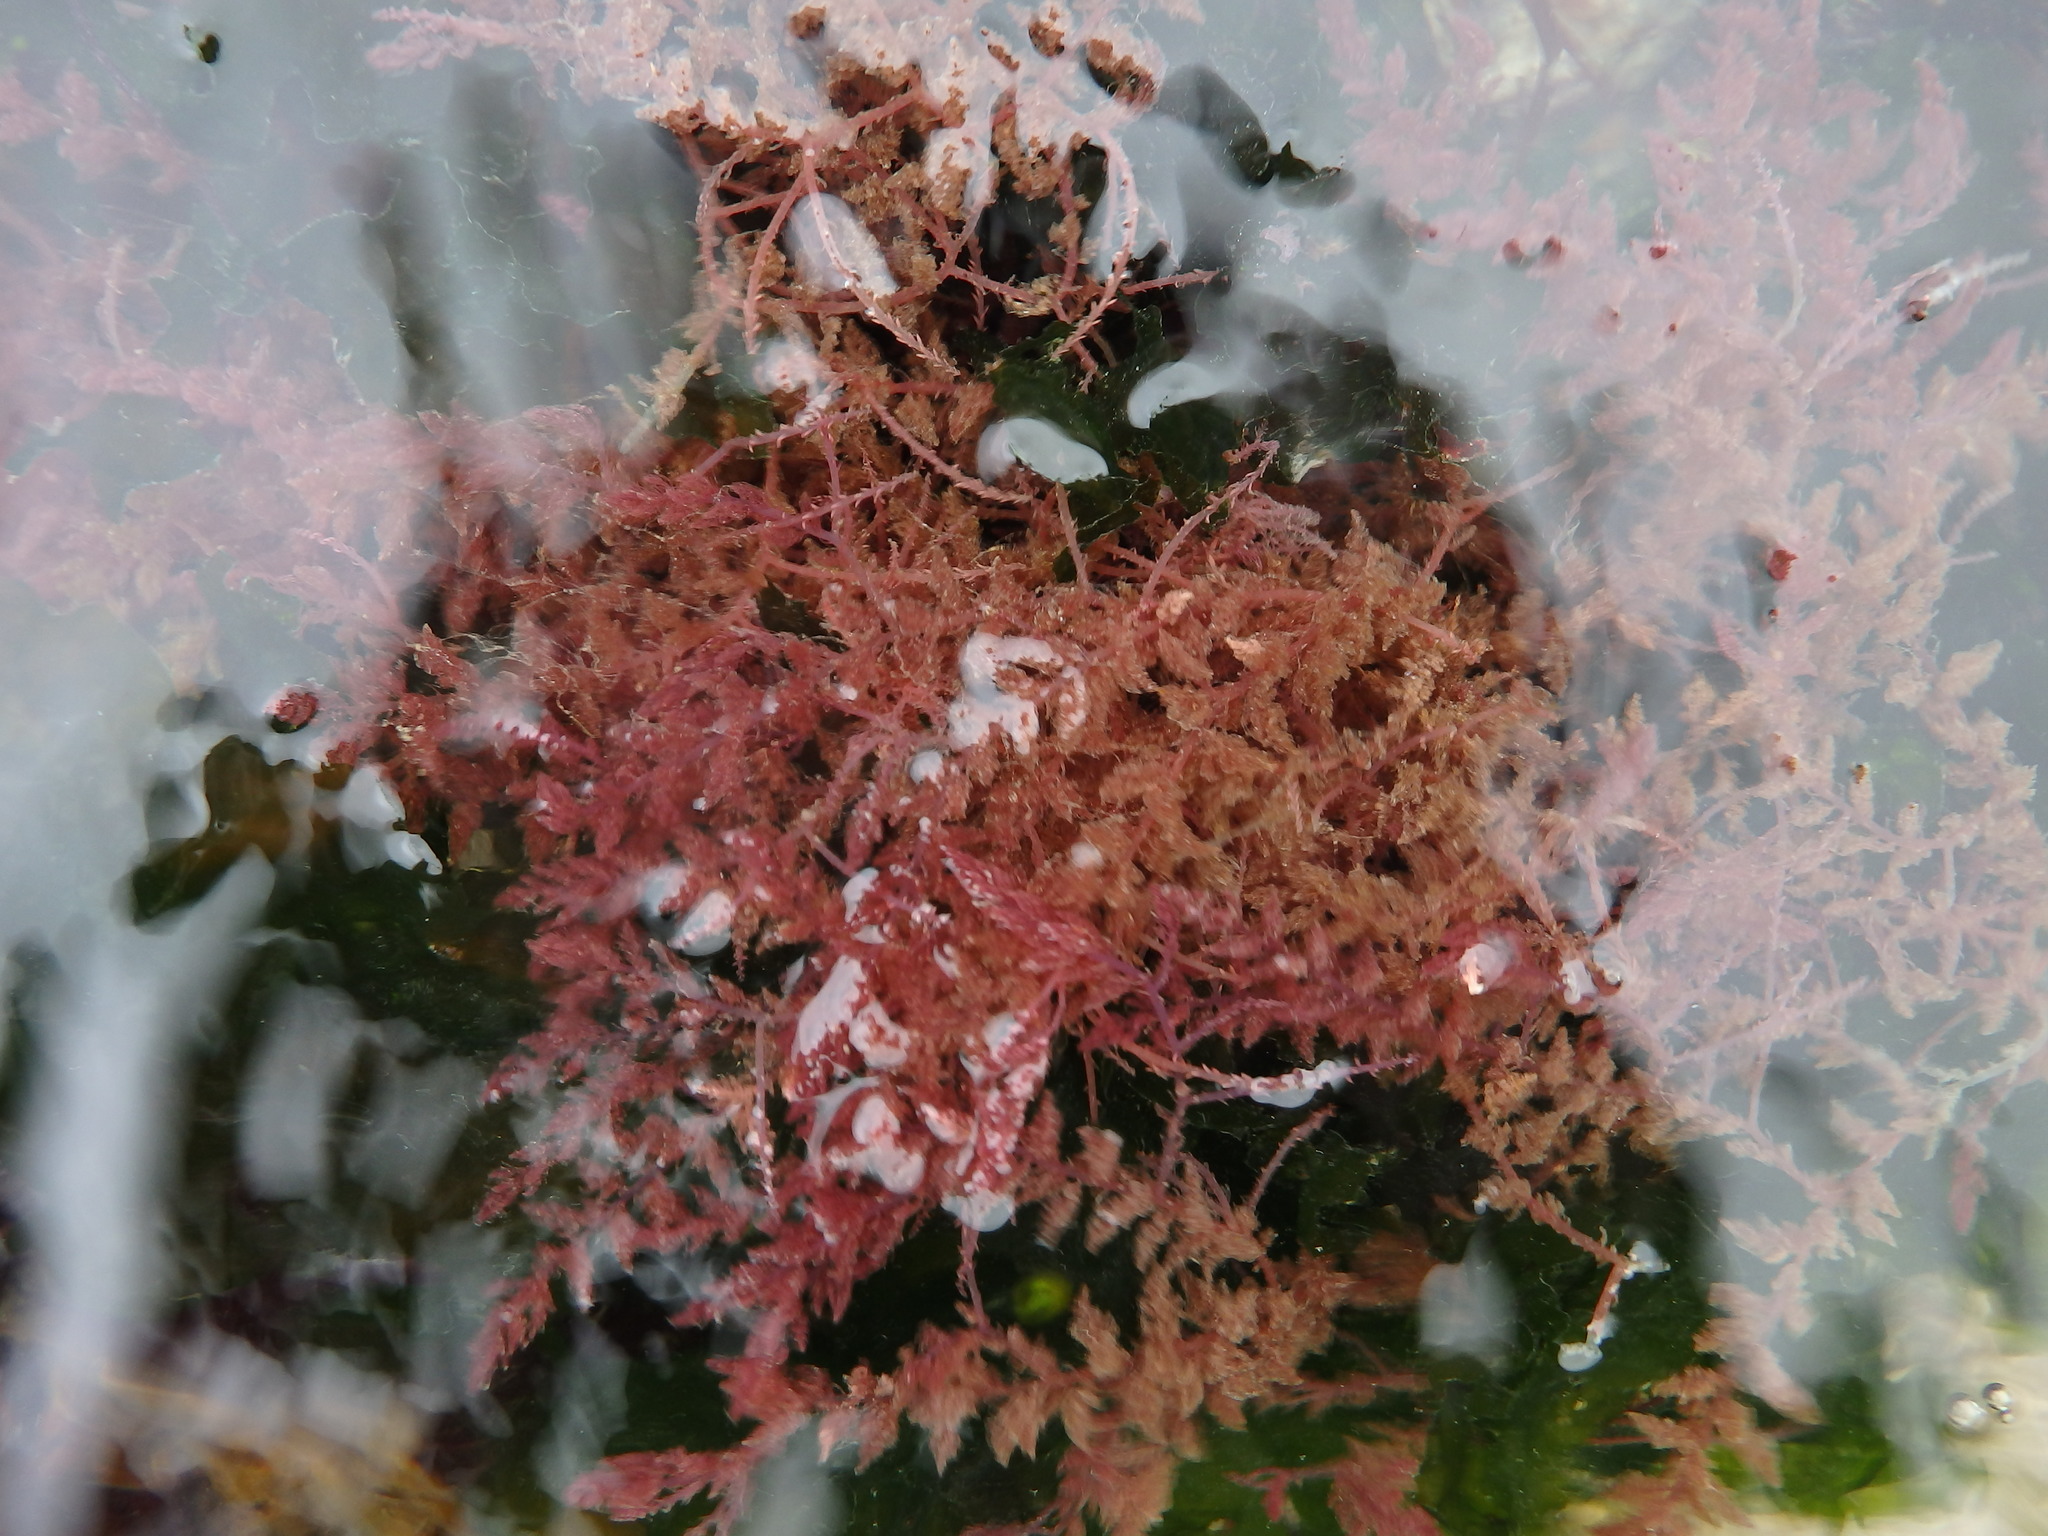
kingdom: Plantae
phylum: Rhodophyta
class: Florideophyceae
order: Bonnemaisoniales
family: Bonnemaisoniaceae
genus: Asparagopsis
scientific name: Asparagopsis armata
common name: Harpoon weed
